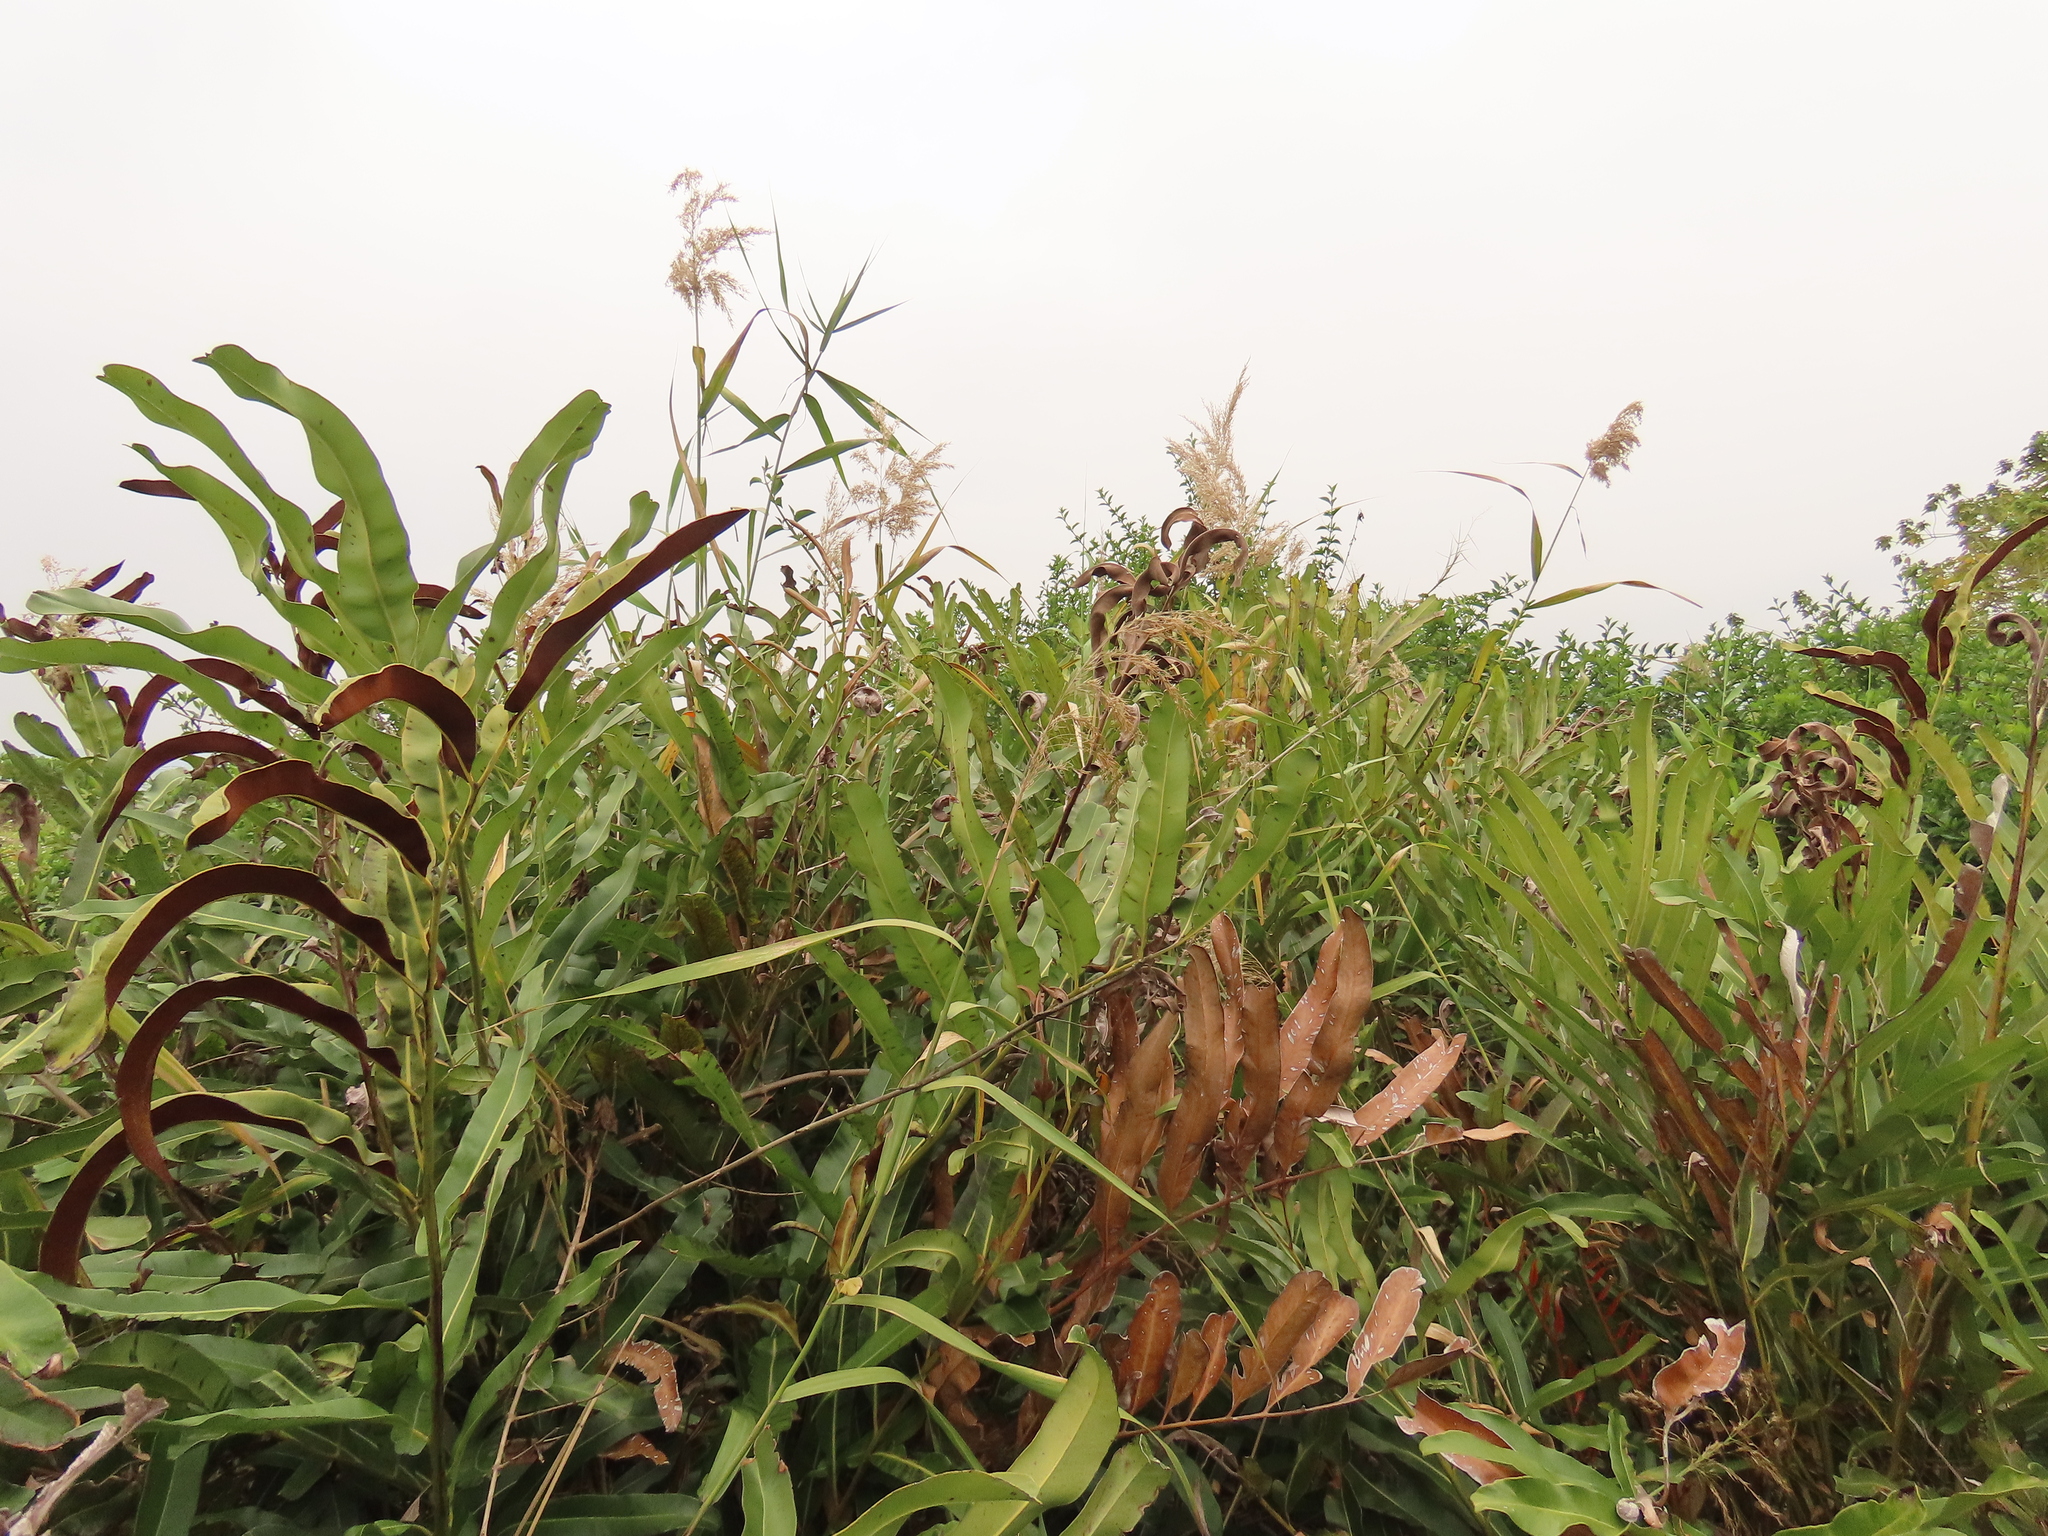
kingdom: Plantae
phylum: Tracheophyta
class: Polypodiopsida
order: Polypodiales
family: Pteridaceae
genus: Acrostichum
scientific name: Acrostichum aureum
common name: Leather fern
